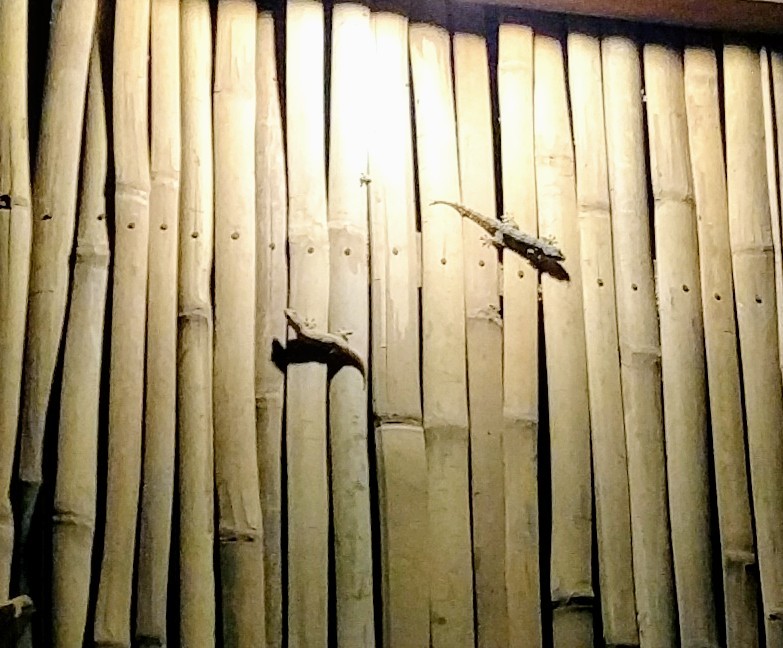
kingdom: Animalia
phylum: Chordata
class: Squamata
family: Gekkonidae
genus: Hemidactylus
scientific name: Hemidactylus platyurus
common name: Flat-tailed house gecko
